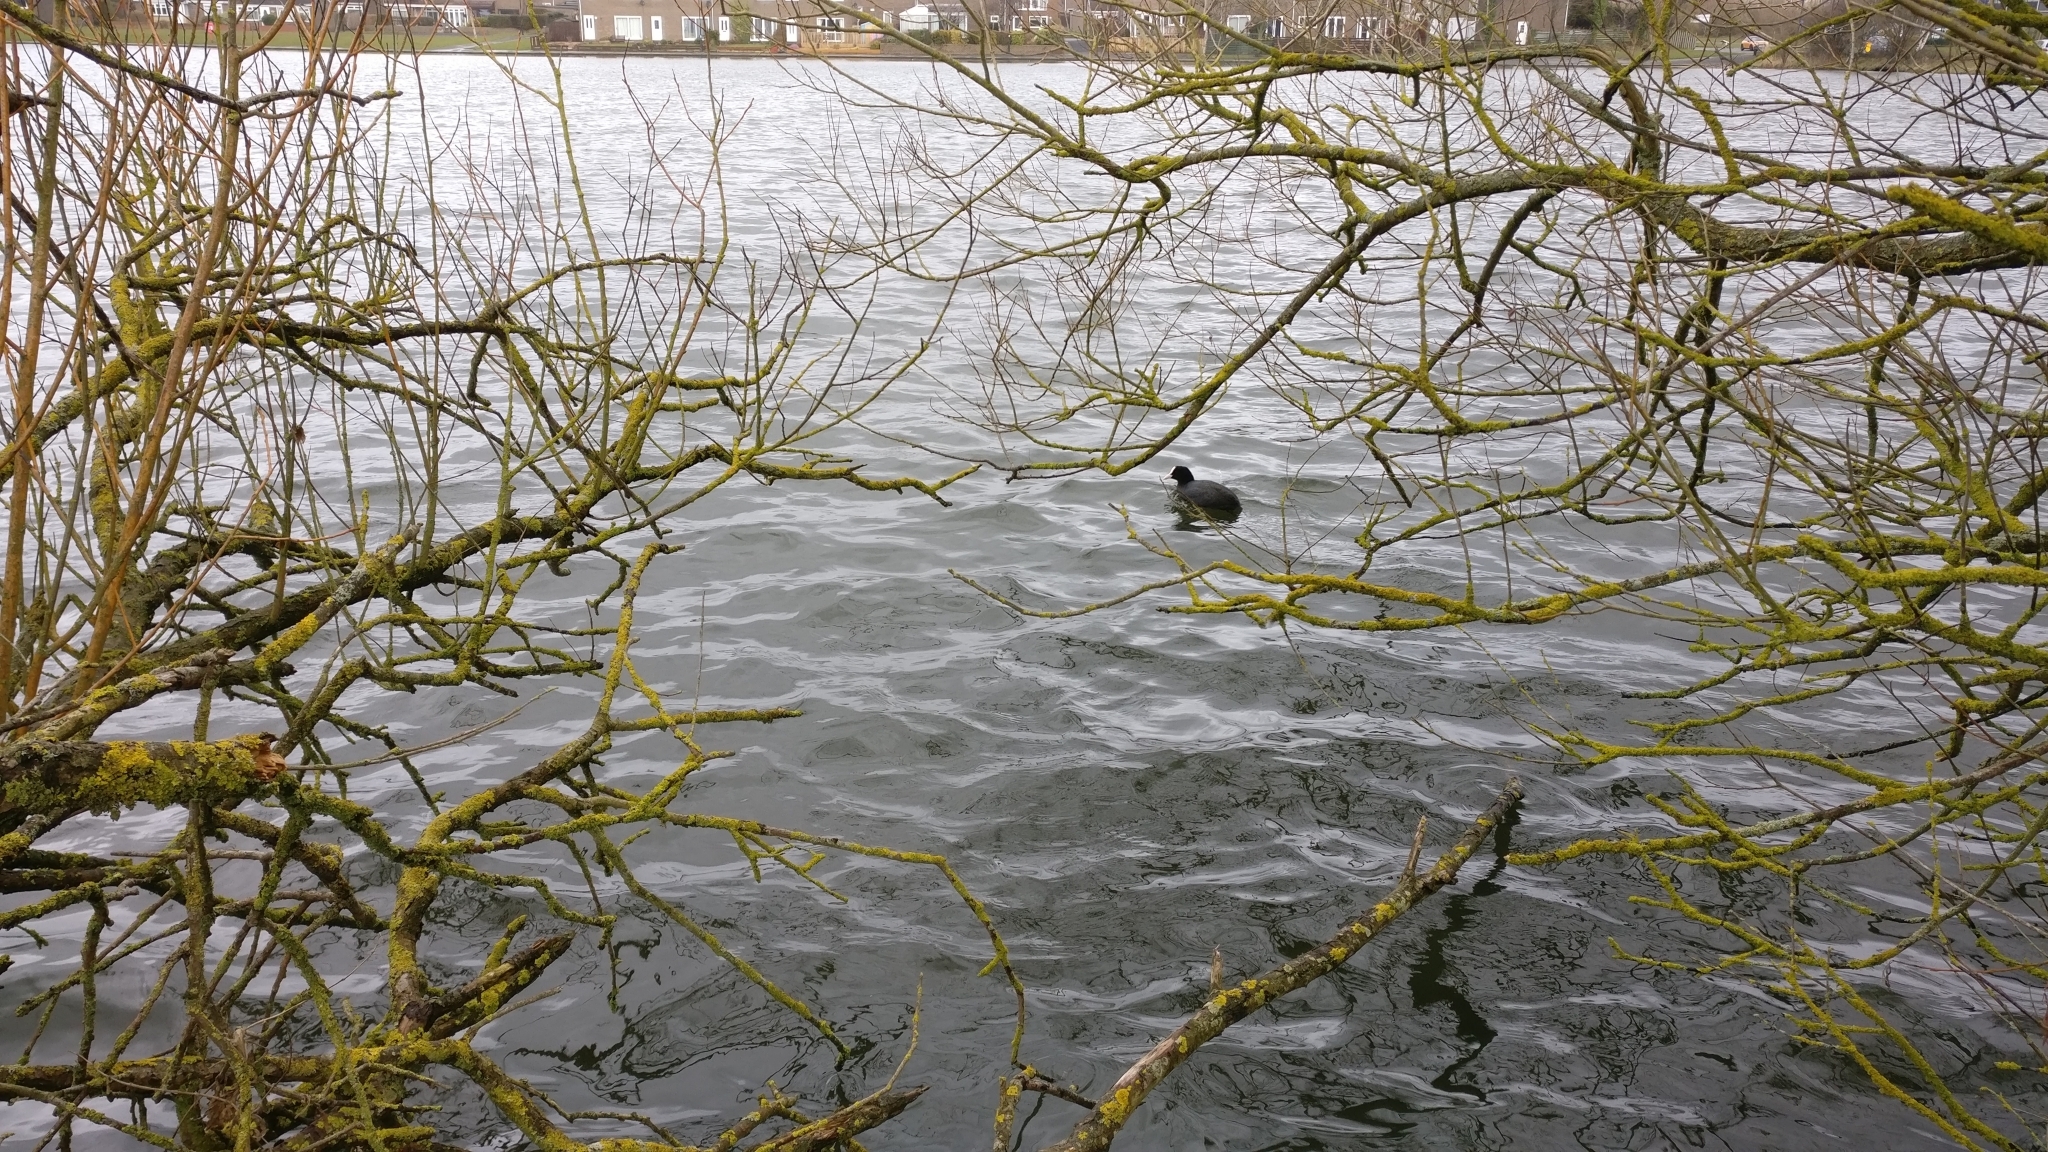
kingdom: Animalia
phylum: Chordata
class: Aves
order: Gruiformes
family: Rallidae
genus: Fulica
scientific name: Fulica atra
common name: Eurasian coot
